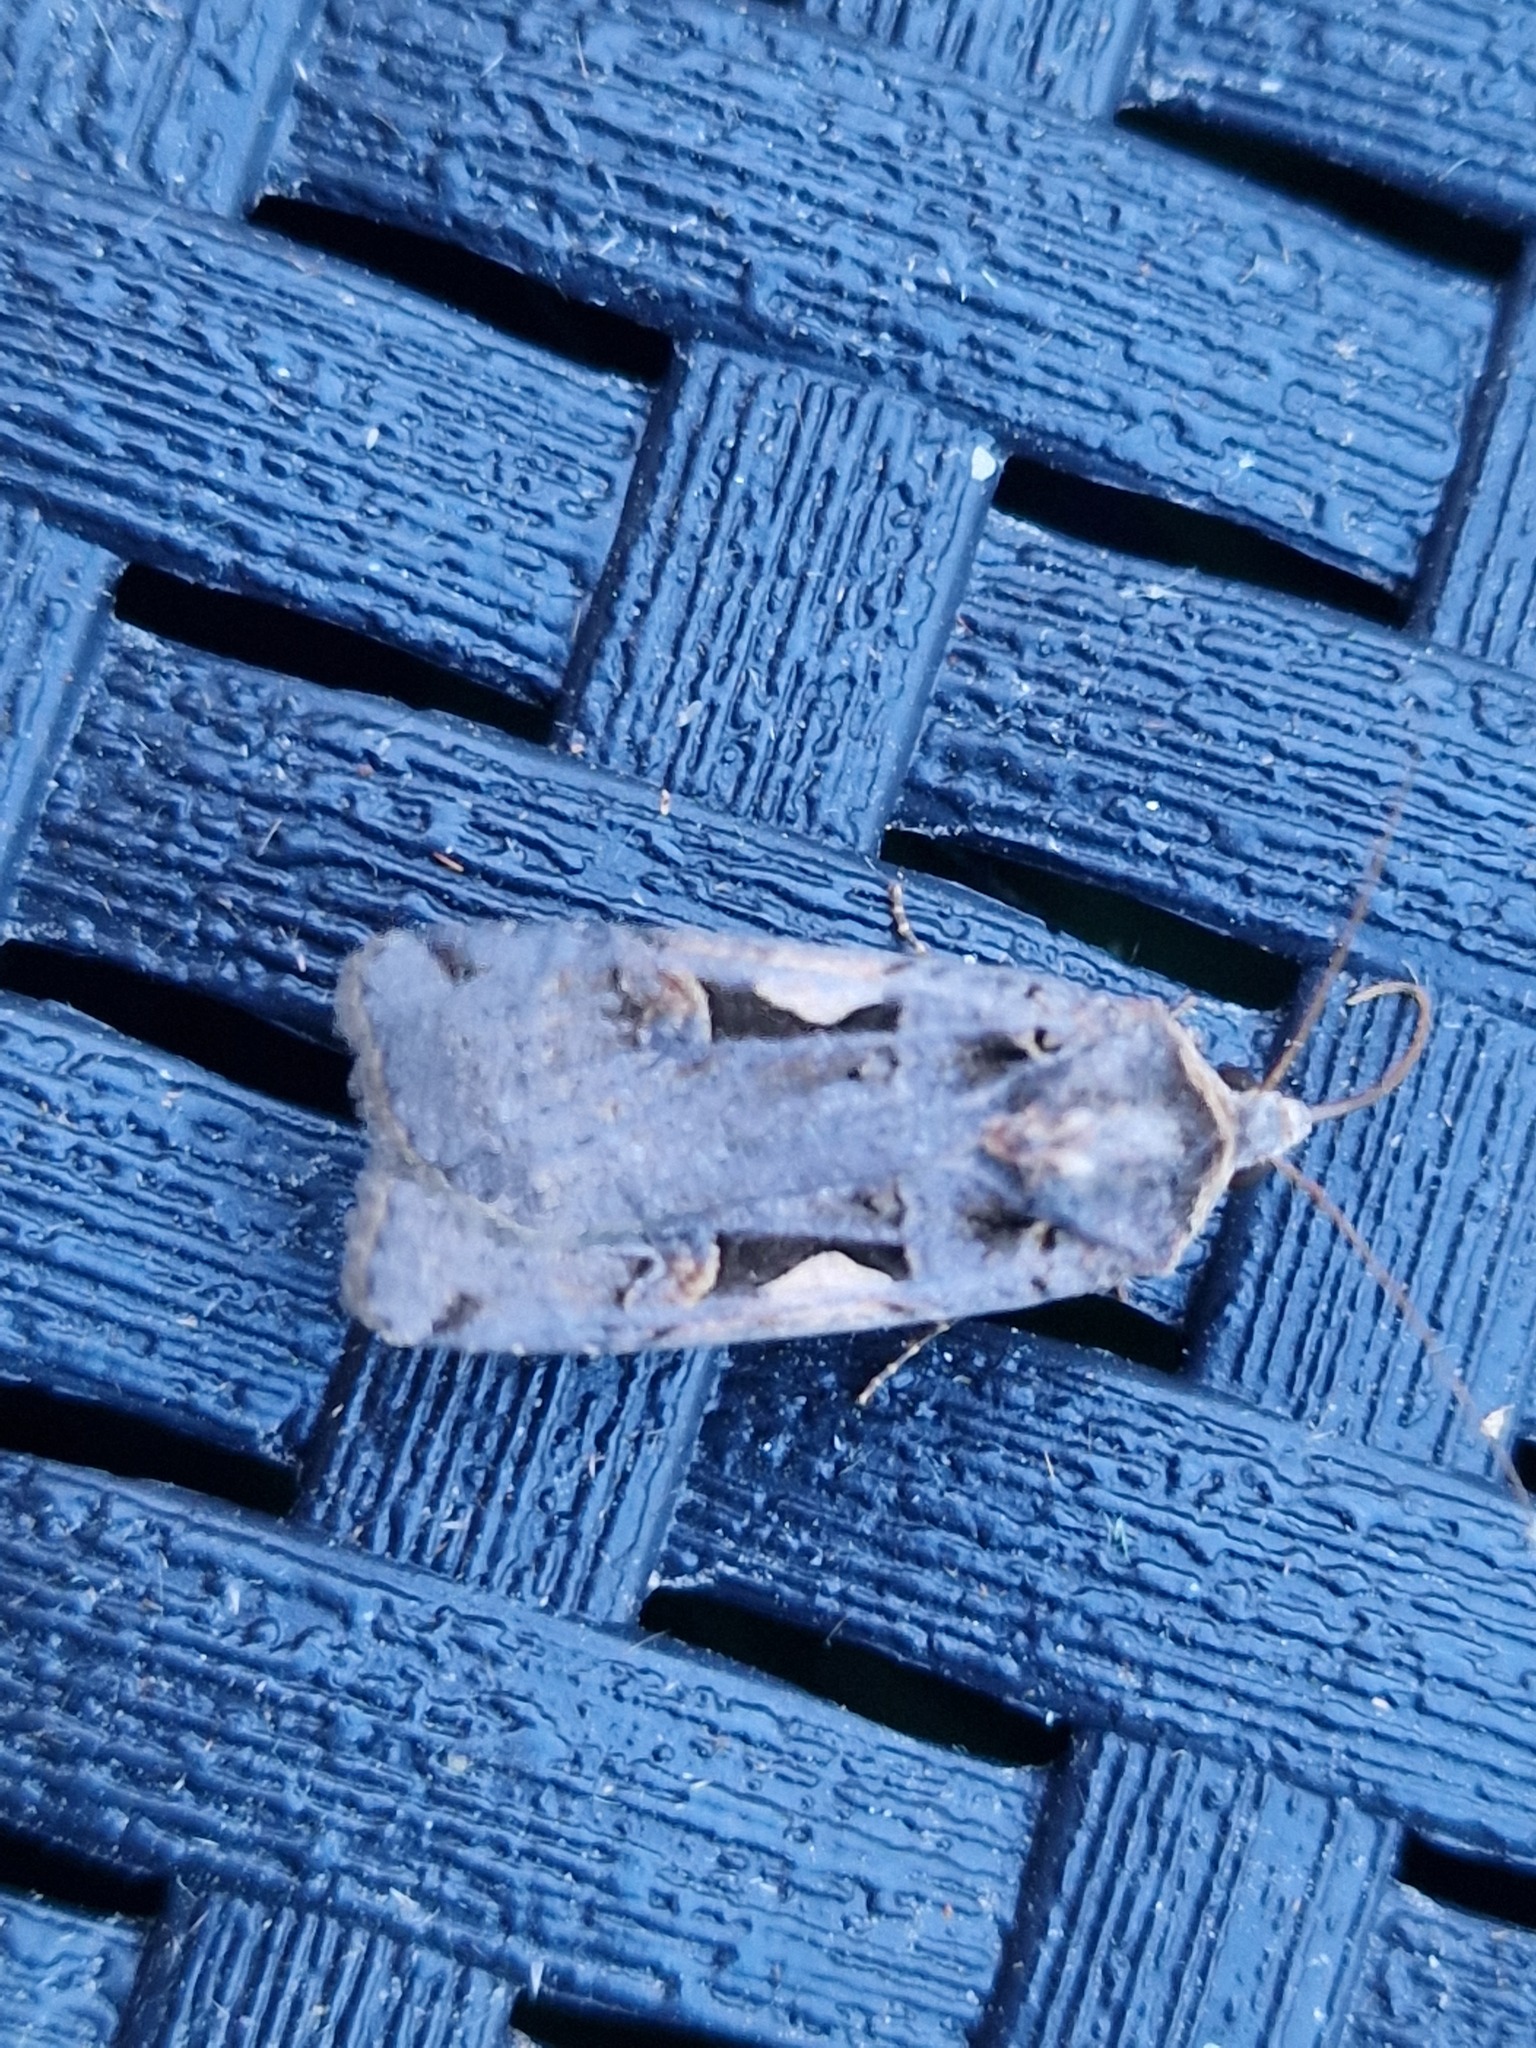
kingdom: Animalia
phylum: Arthropoda
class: Insecta
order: Lepidoptera
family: Noctuidae
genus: Xestia
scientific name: Xestia c-nigrum
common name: Setaceous hebrew character
